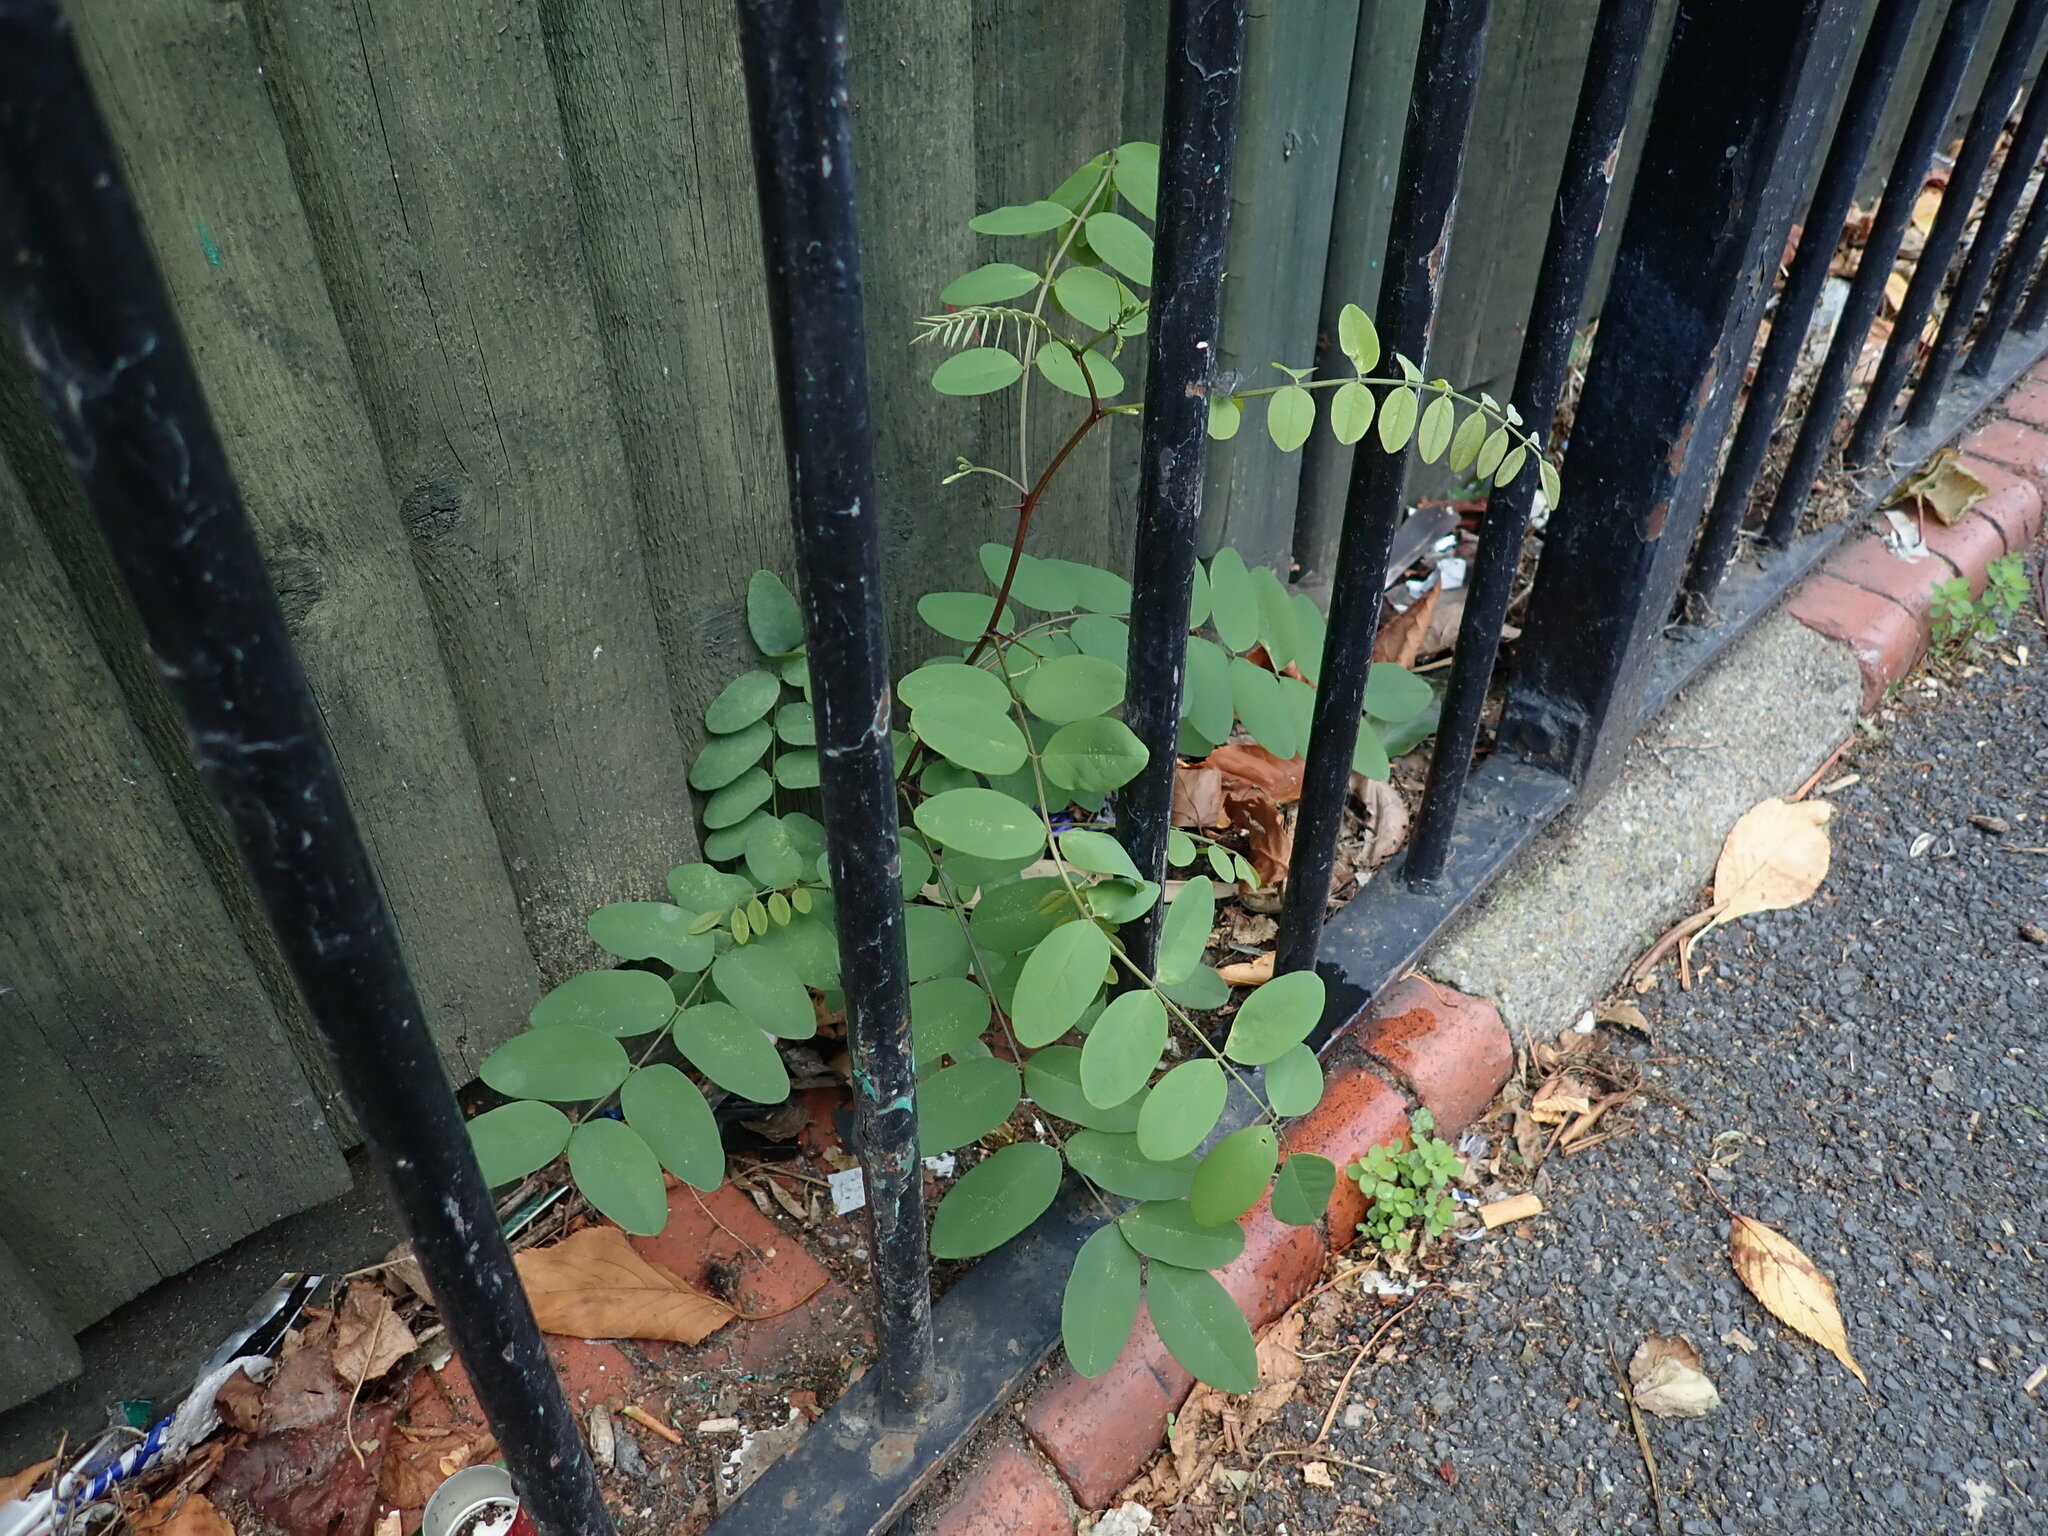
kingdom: Plantae
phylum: Tracheophyta
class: Magnoliopsida
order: Fabales
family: Fabaceae
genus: Robinia
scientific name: Robinia pseudoacacia
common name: Black locust
